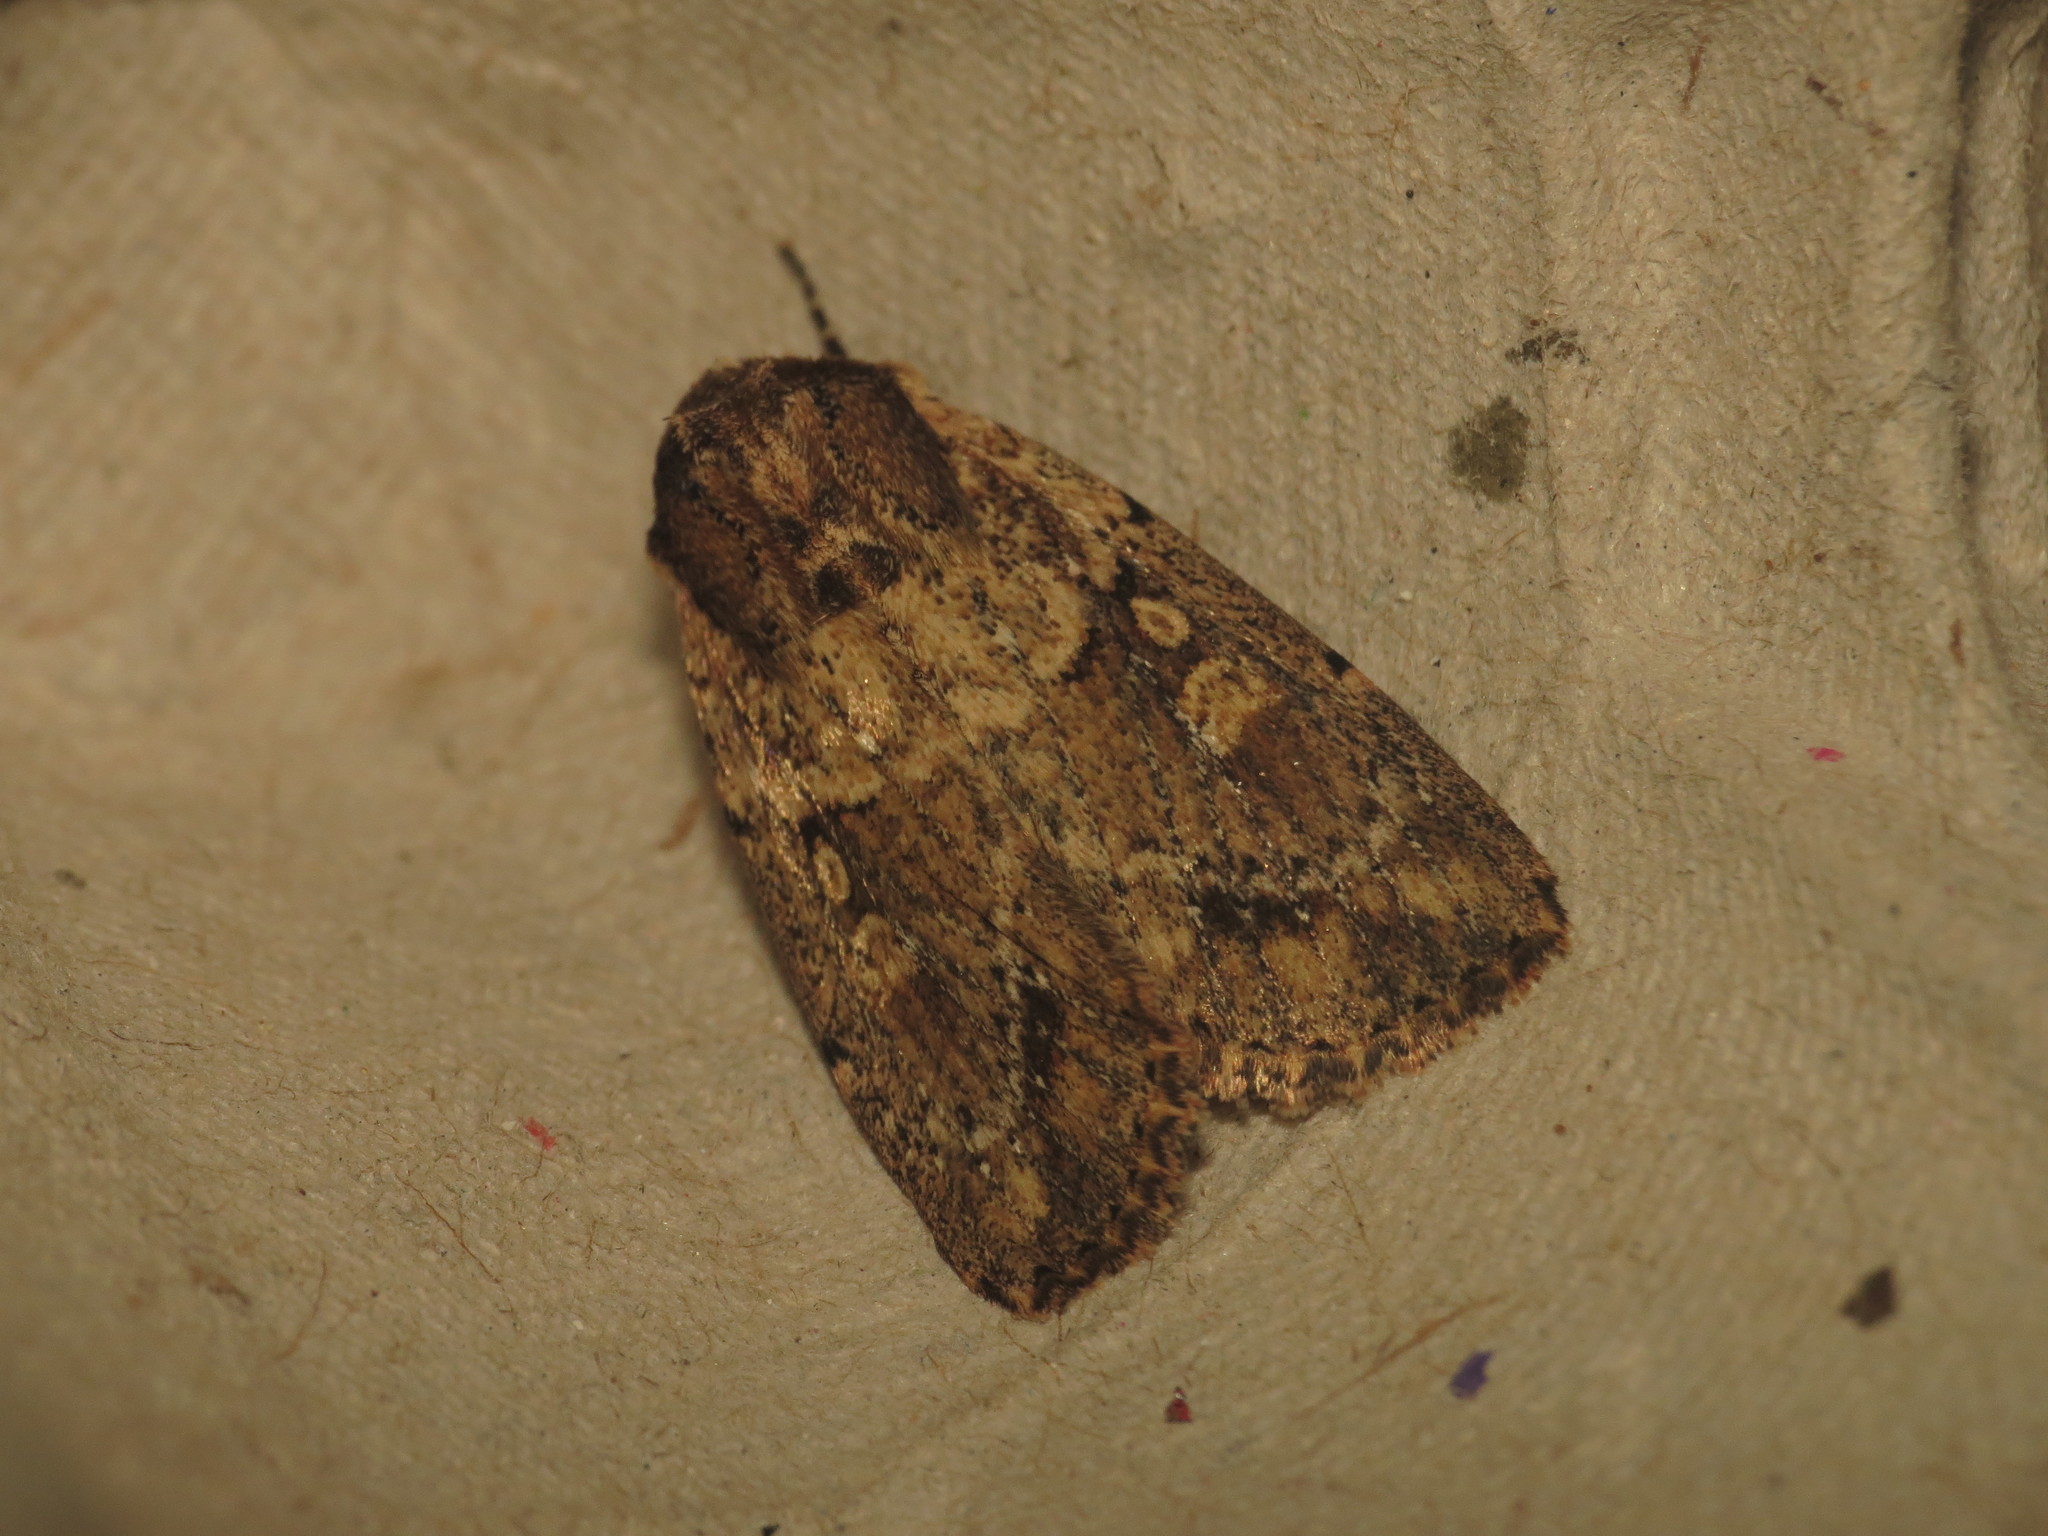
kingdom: Animalia
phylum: Arthropoda
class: Insecta
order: Lepidoptera
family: Noctuidae
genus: Mythimna
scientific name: Mythimna reversa
